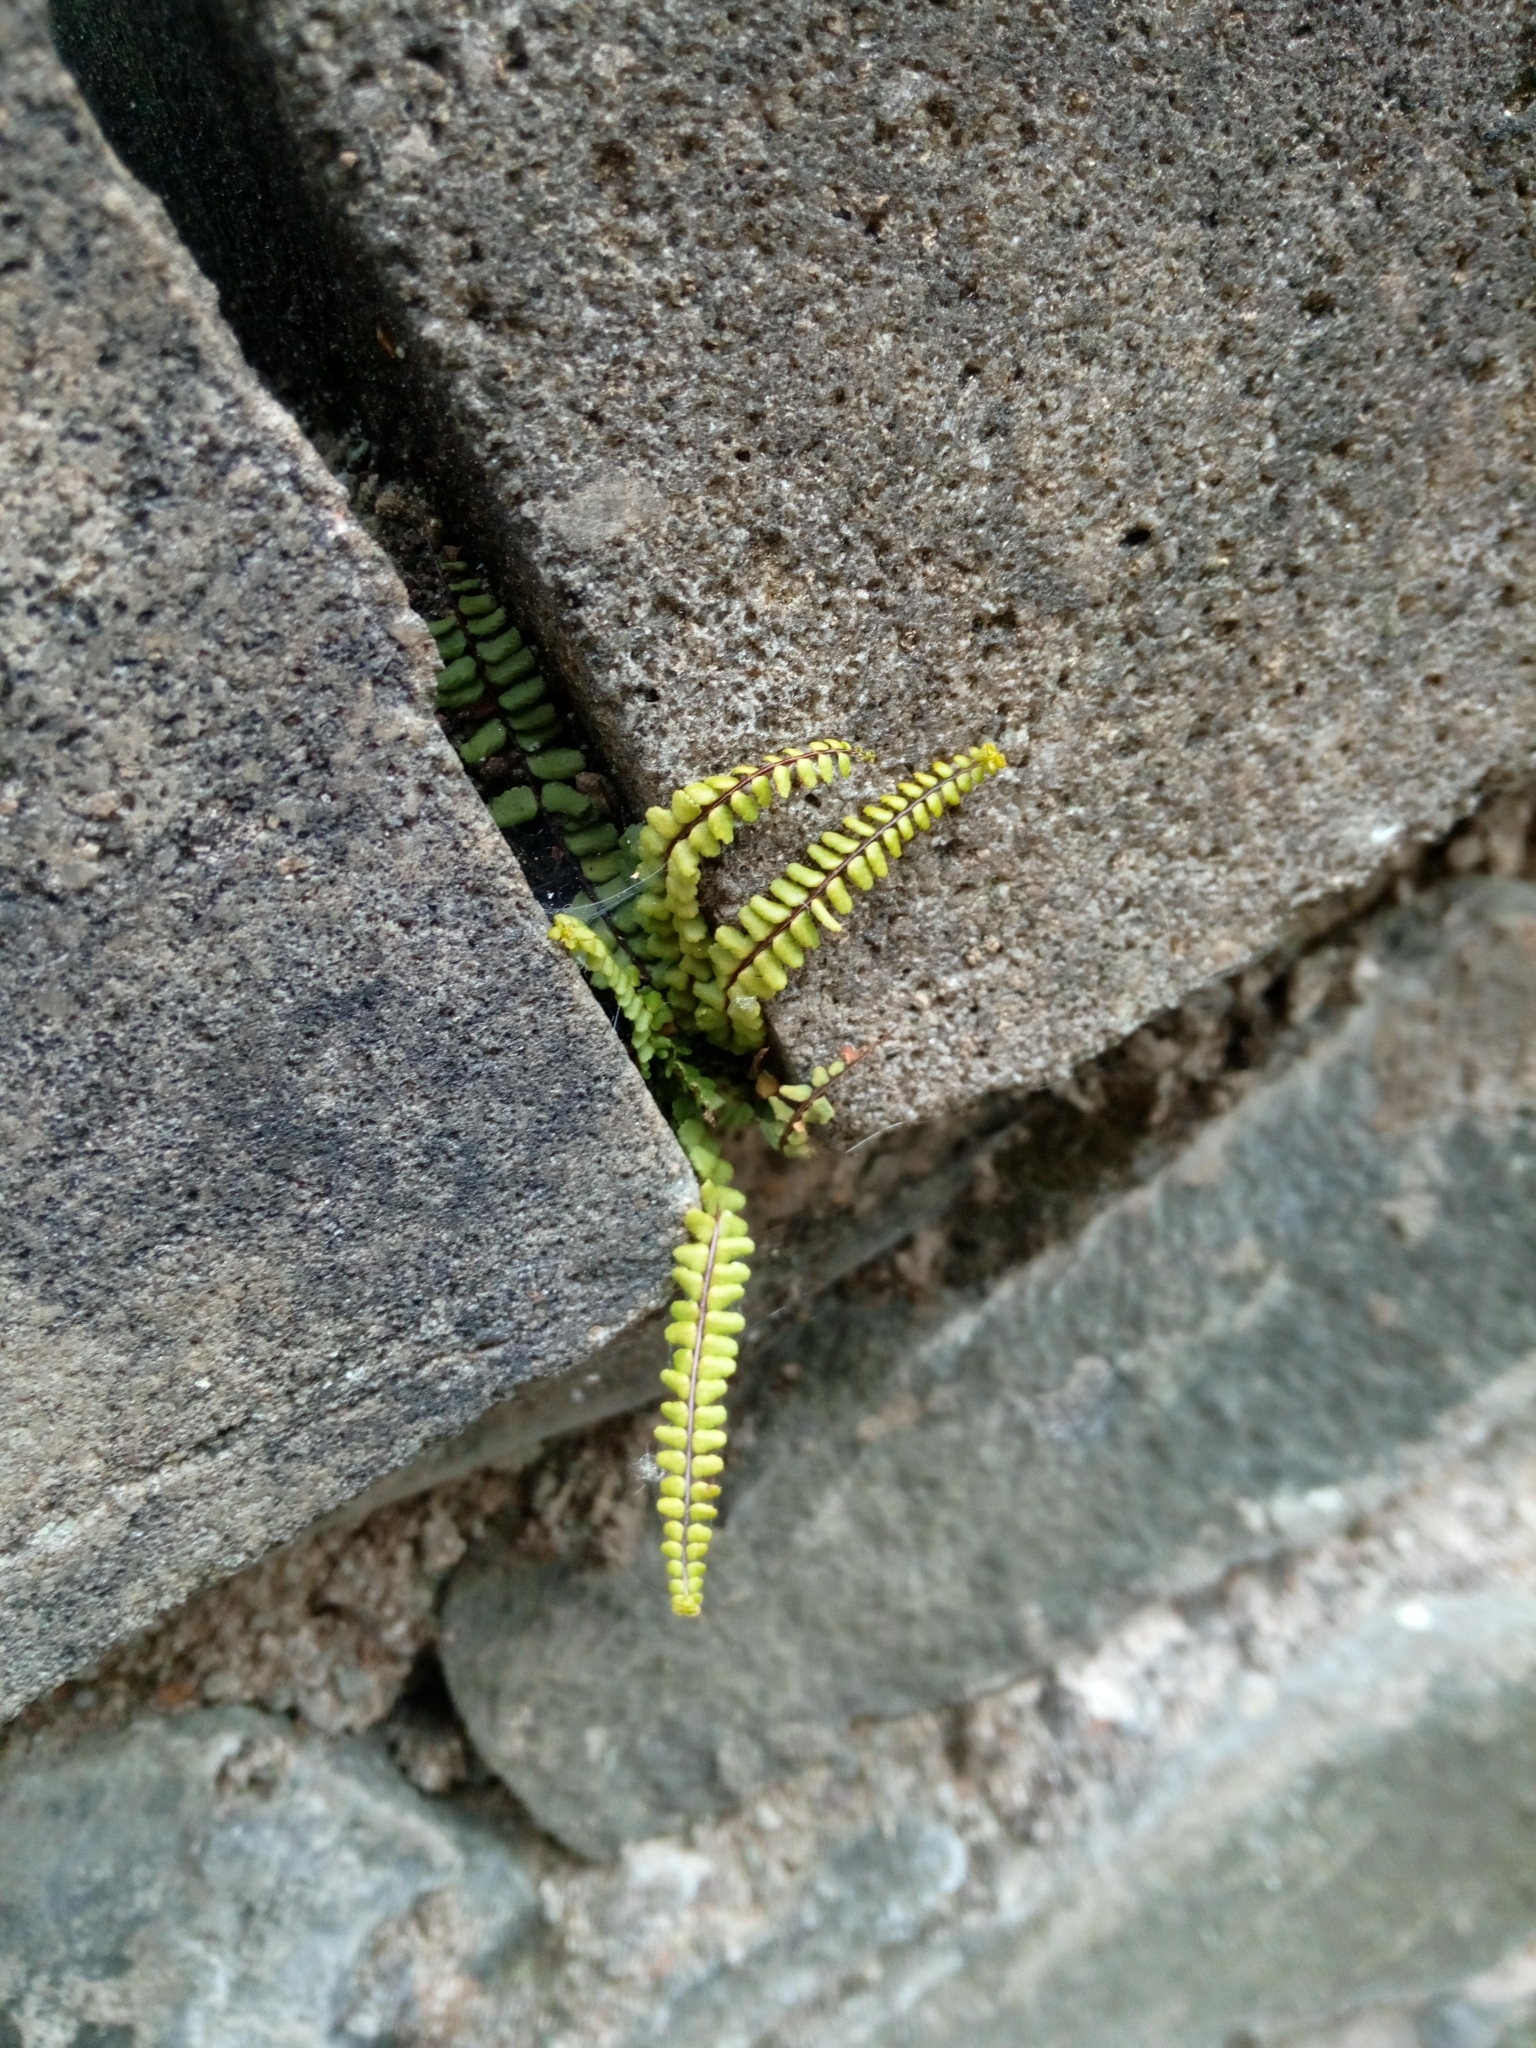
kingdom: Plantae
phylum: Tracheophyta
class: Polypodiopsida
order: Polypodiales
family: Aspleniaceae
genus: Asplenium
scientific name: Asplenium trichomanes
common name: Maidenhair spleenwort
